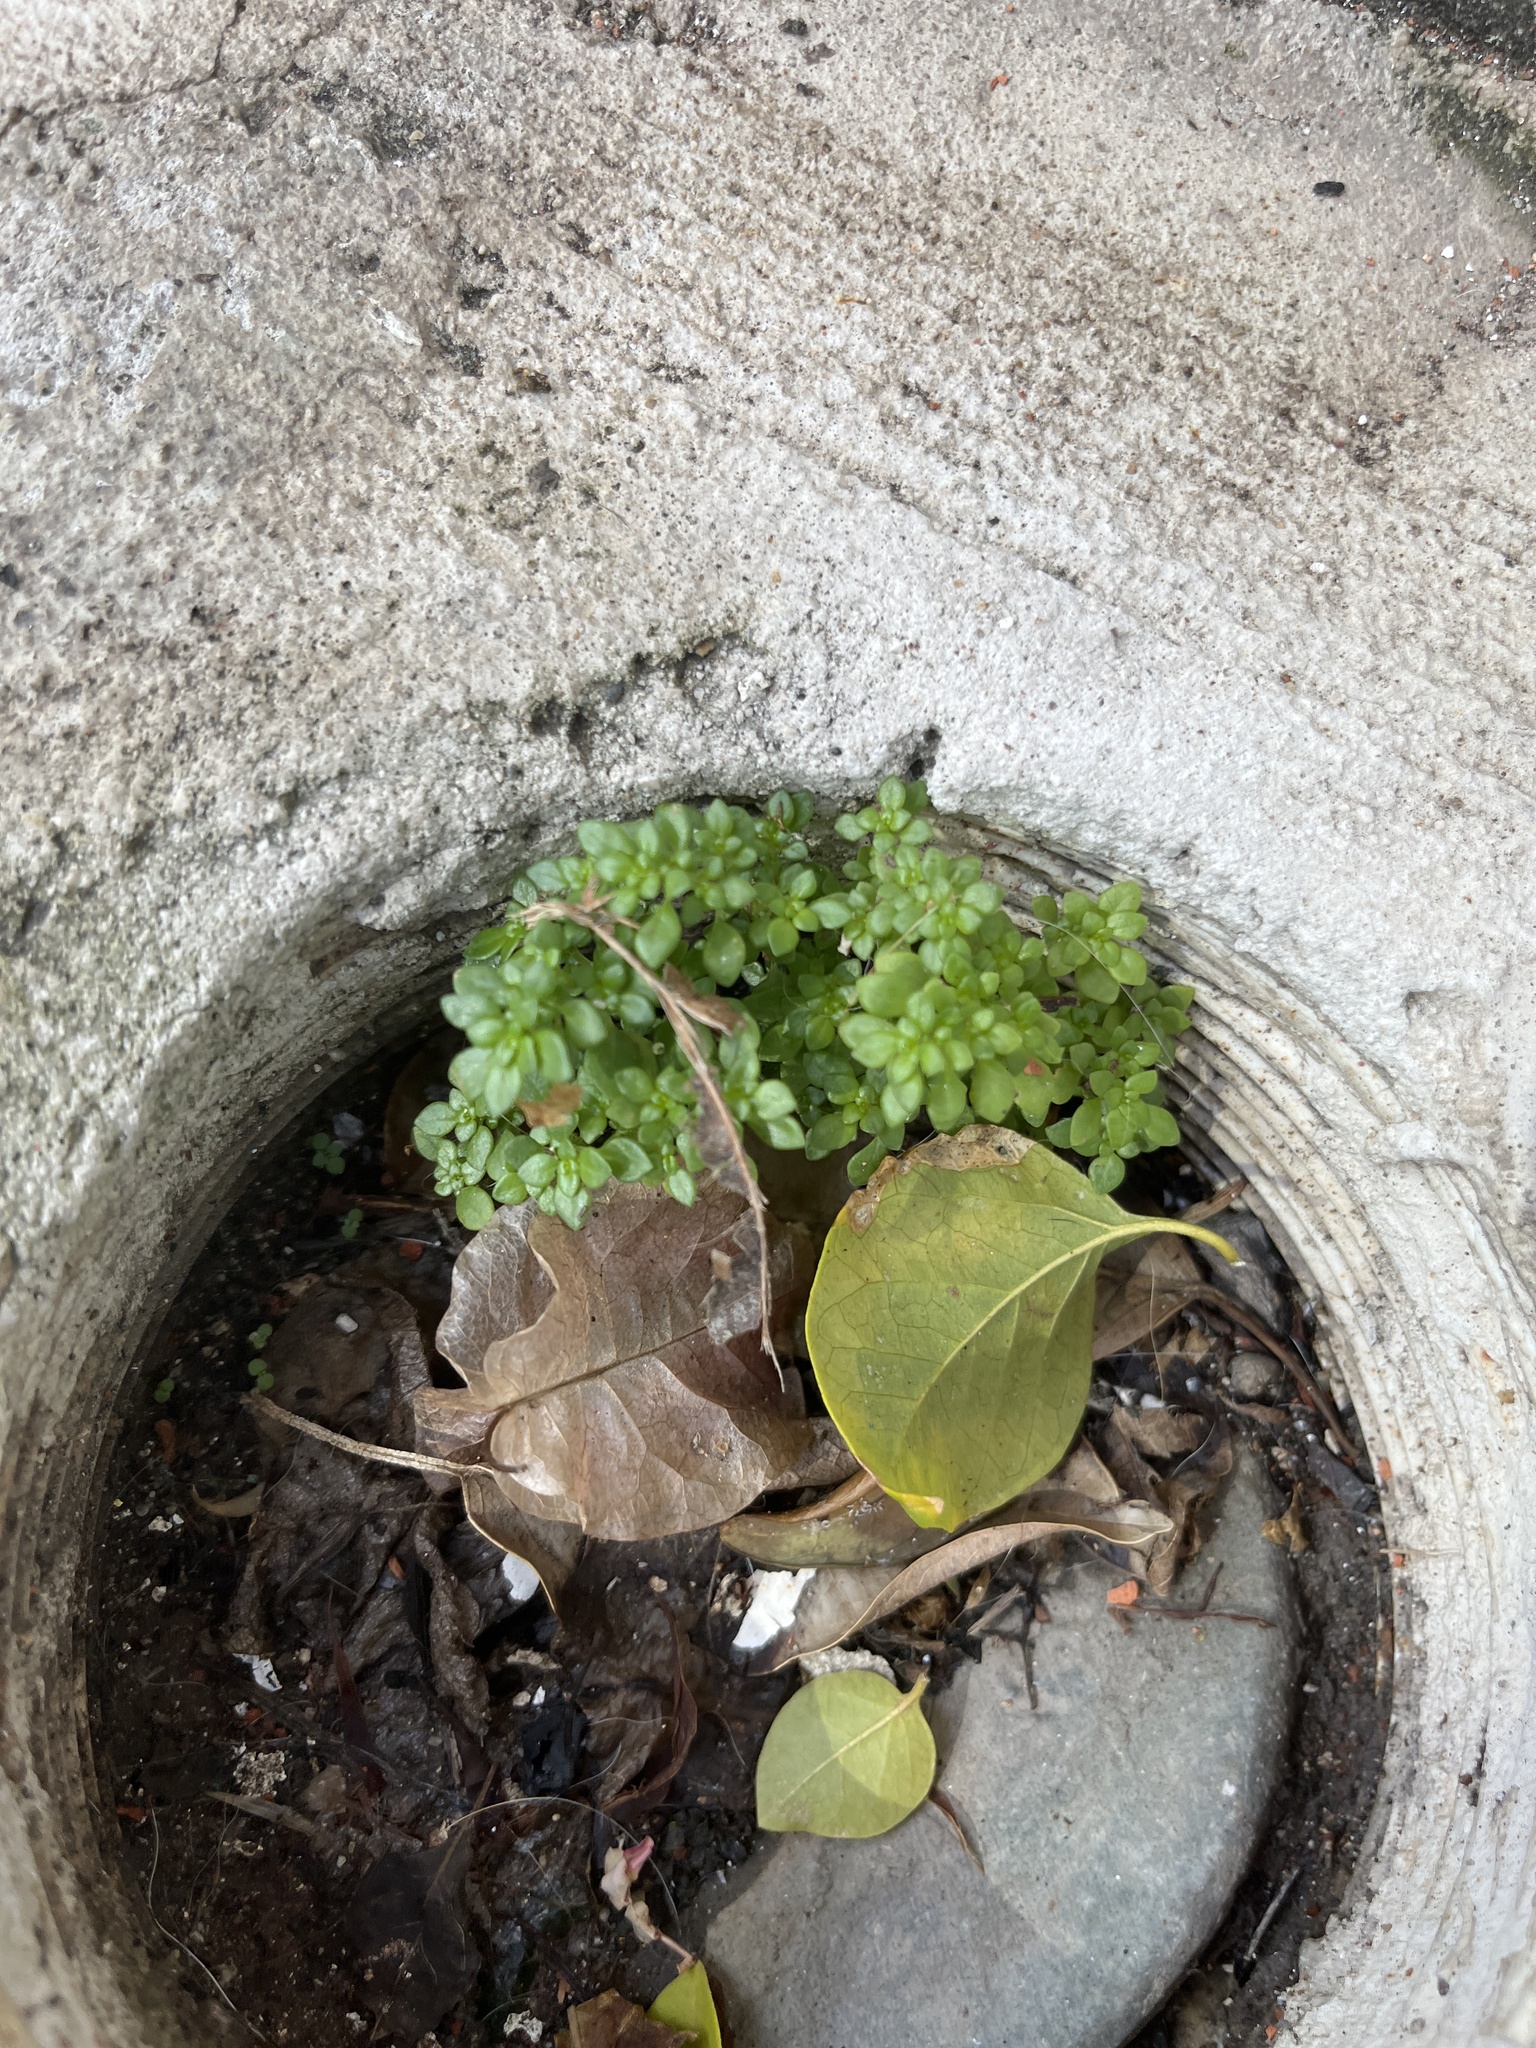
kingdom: Plantae
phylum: Tracheophyta
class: Magnoliopsida
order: Rosales
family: Urticaceae
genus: Pilea
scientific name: Pilea microphylla
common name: Artillery-plant
